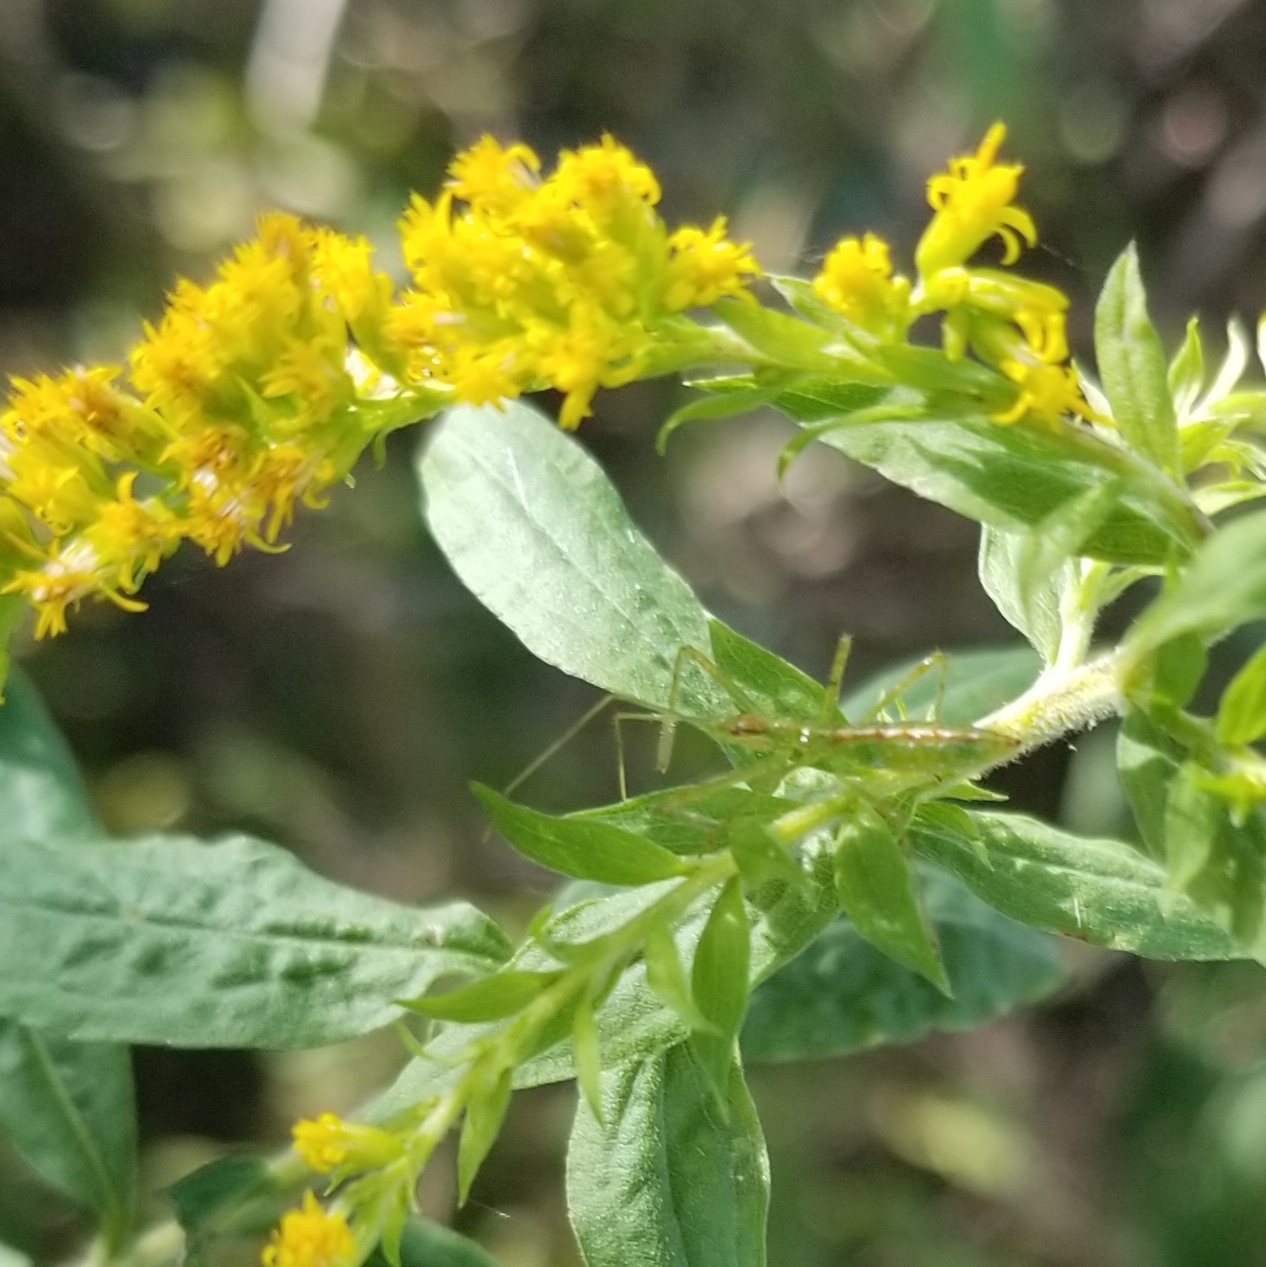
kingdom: Animalia
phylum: Arthropoda
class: Insecta
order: Hemiptera
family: Reduviidae
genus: Zelus
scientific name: Zelus luridus
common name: Pale green assassin bug
